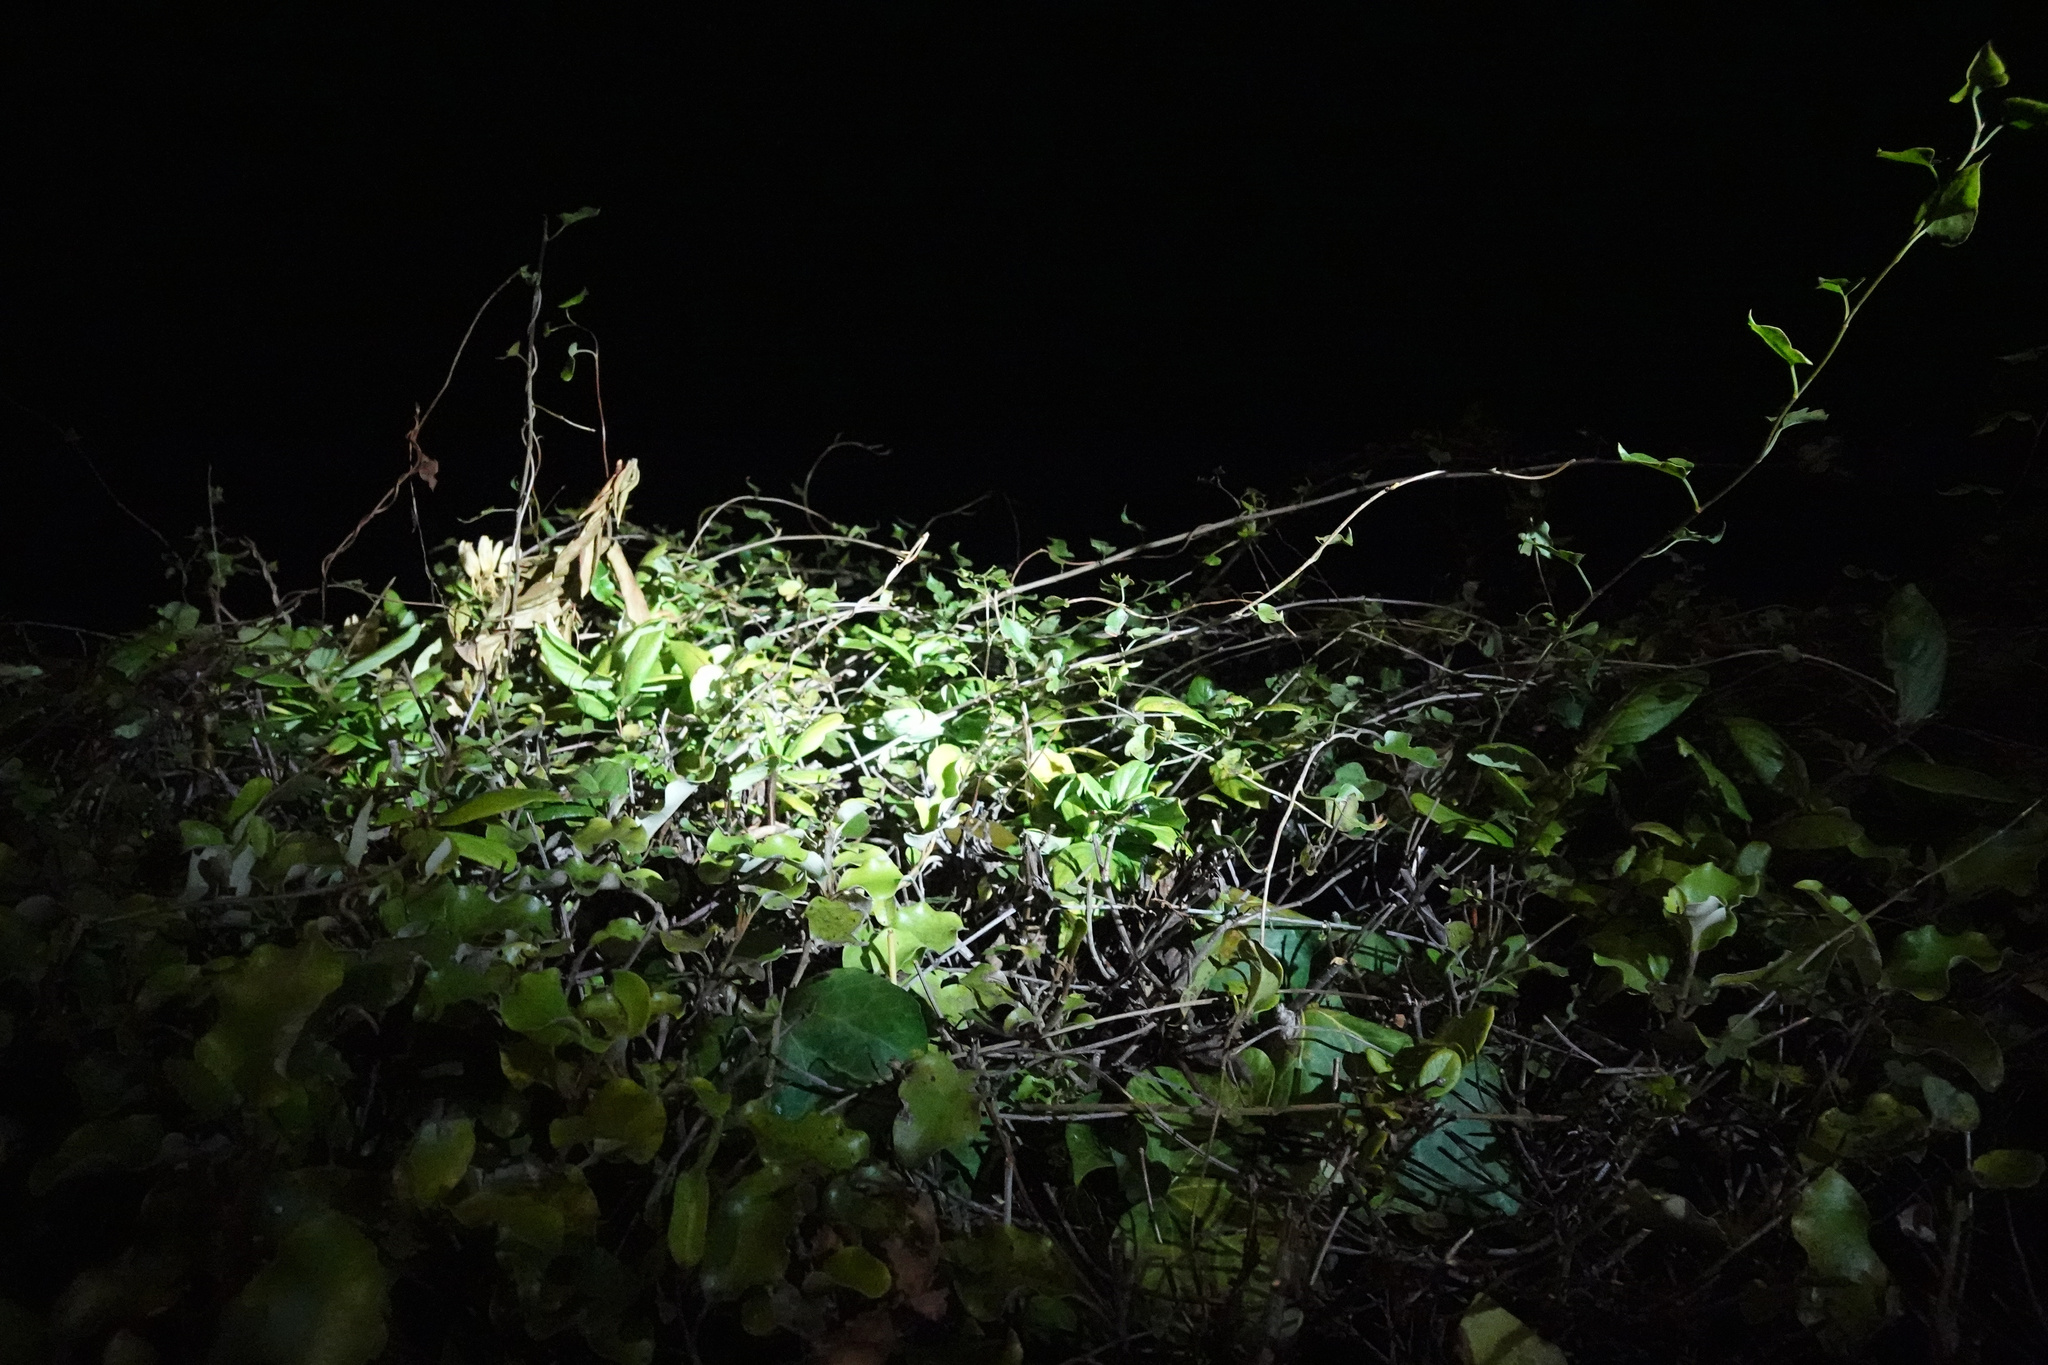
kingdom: Plantae
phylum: Tracheophyta
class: Magnoliopsida
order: Caryophyllales
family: Polygonaceae
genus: Muehlenbeckia
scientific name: Muehlenbeckia australis
